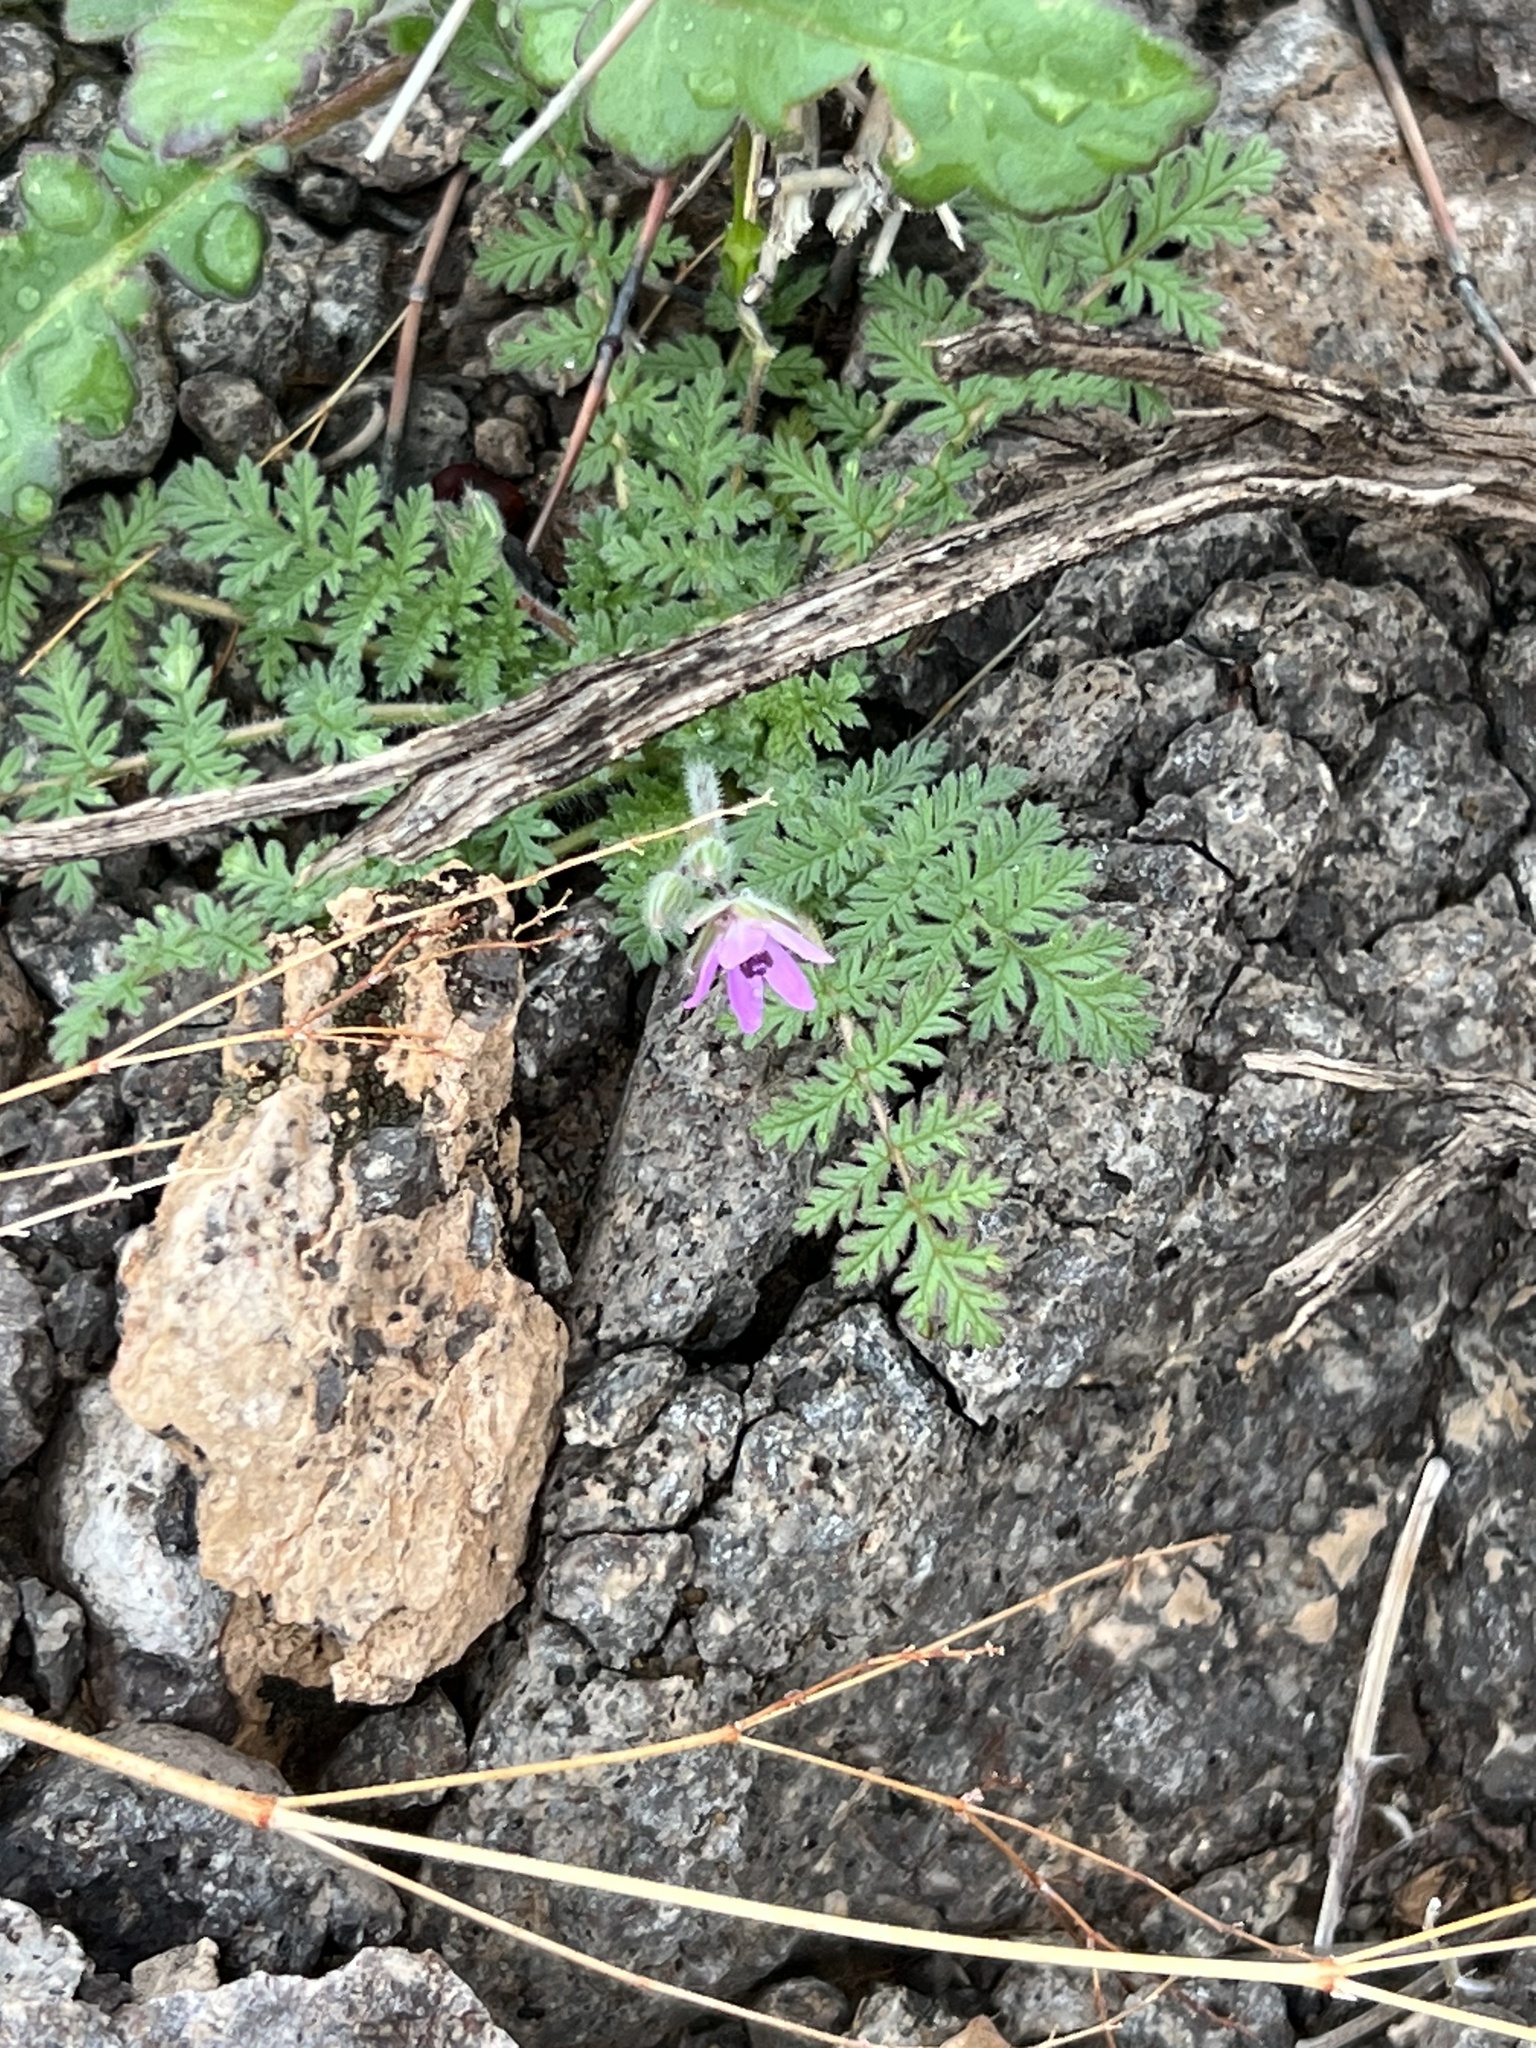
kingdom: Plantae
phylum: Tracheophyta
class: Magnoliopsida
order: Geraniales
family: Geraniaceae
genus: Erodium
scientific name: Erodium cicutarium
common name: Common stork's-bill
